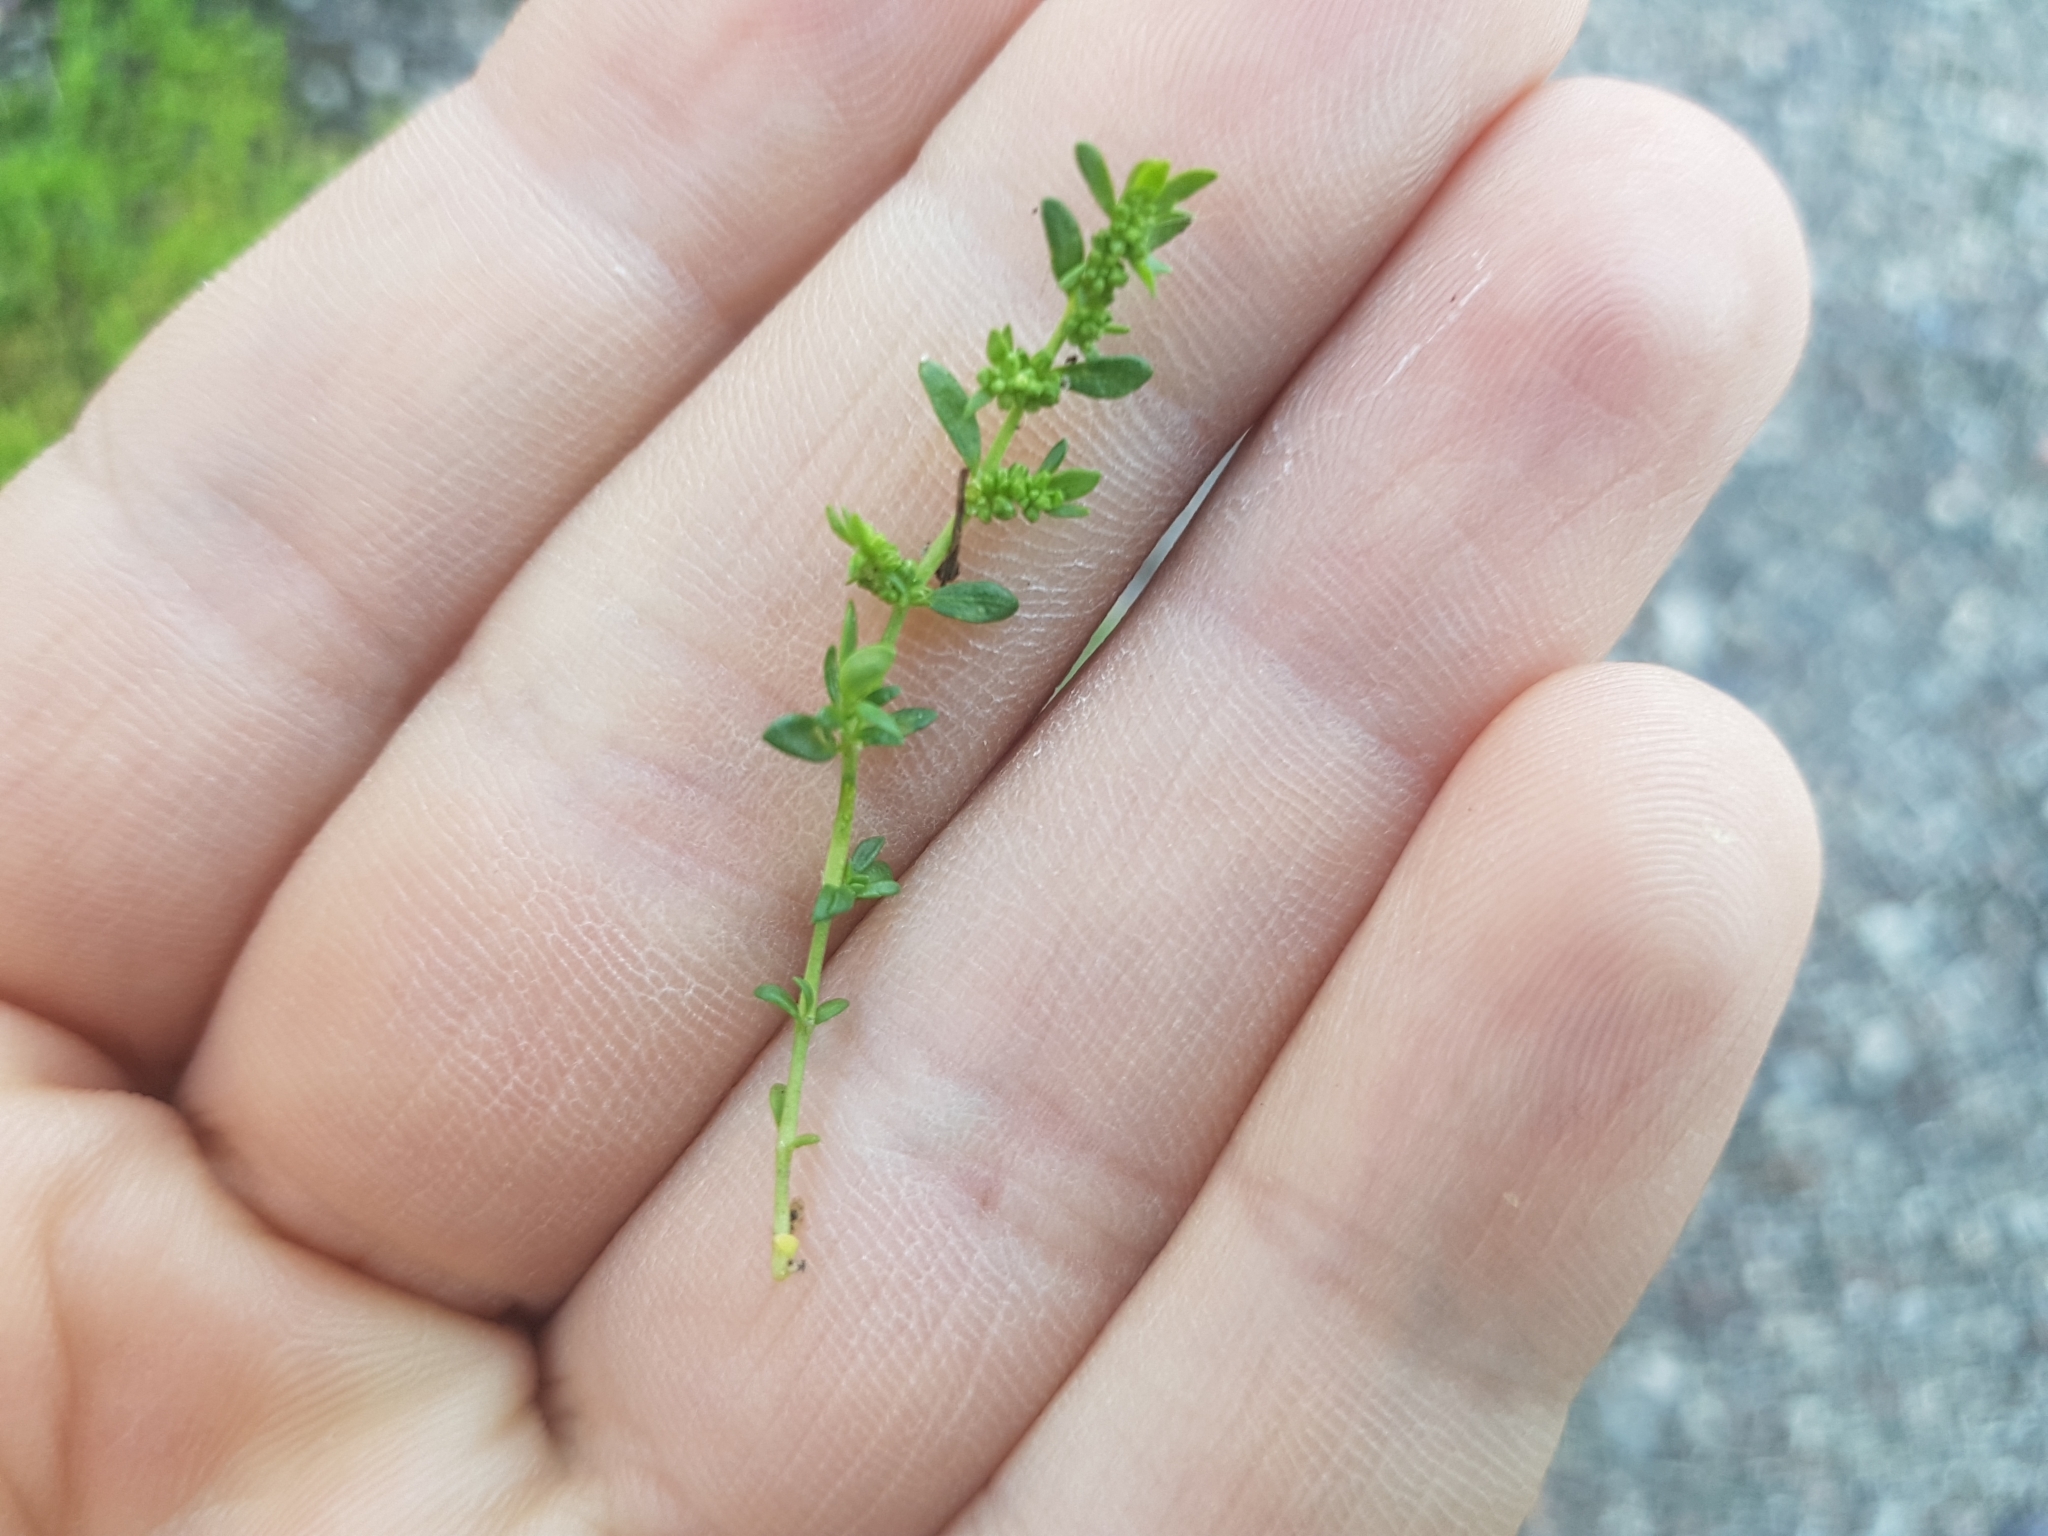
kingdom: Plantae
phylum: Tracheophyta
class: Magnoliopsida
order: Caryophyllales
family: Caryophyllaceae
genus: Herniaria
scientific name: Herniaria glabra
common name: Smooth rupturewort
